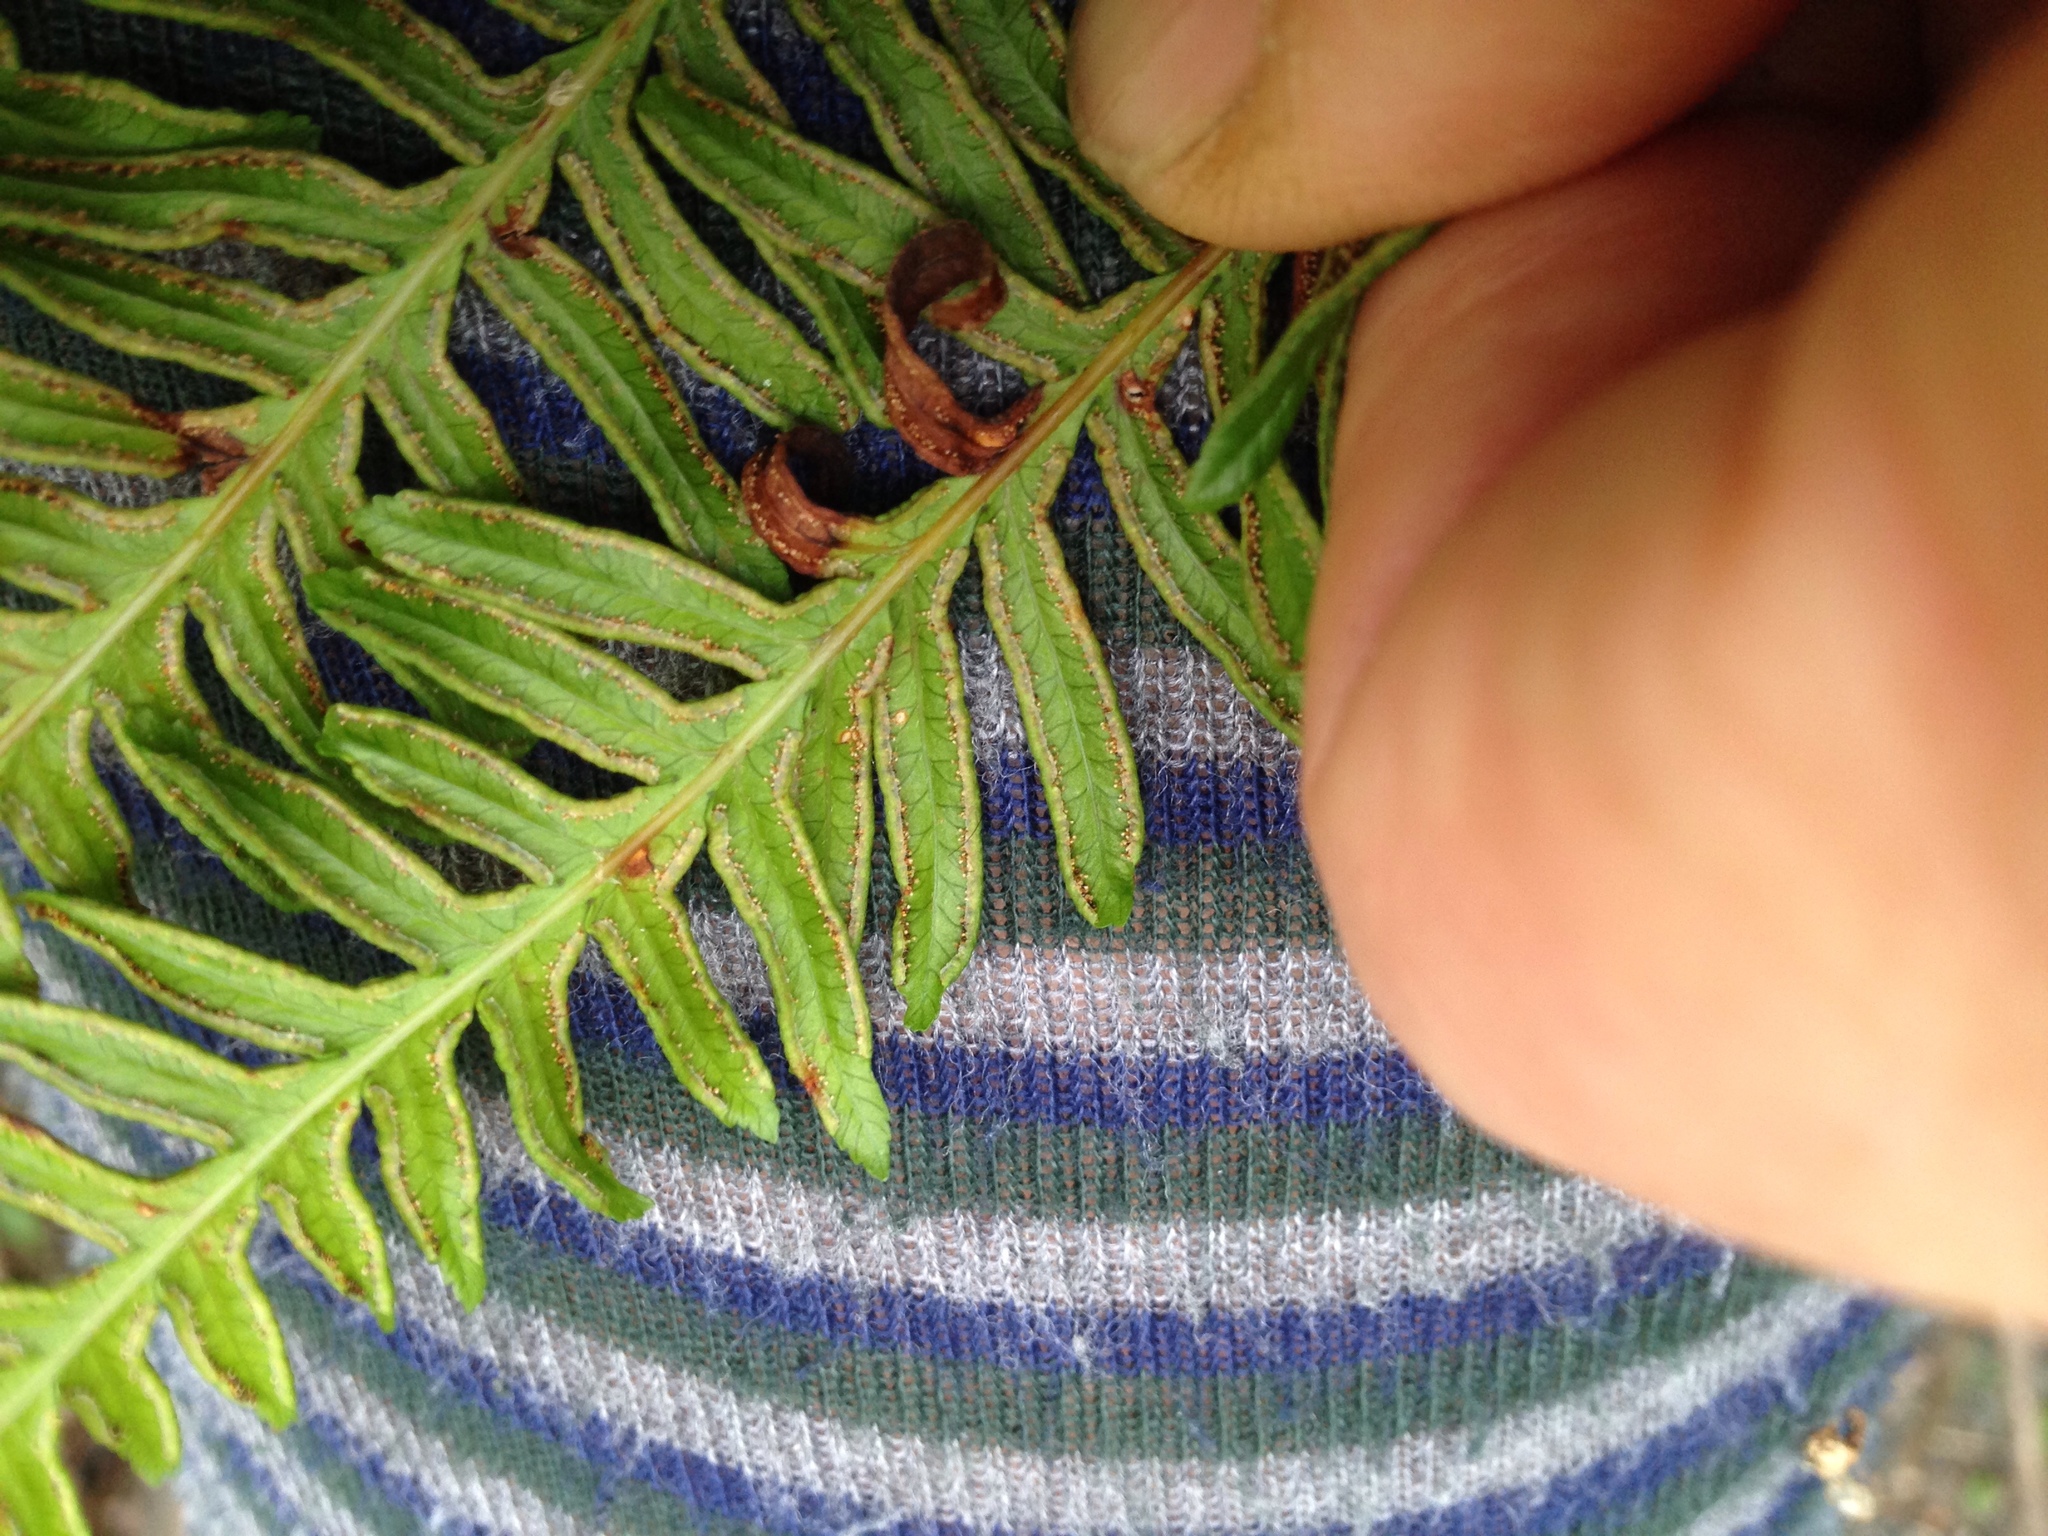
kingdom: Plantae
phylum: Tracheophyta
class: Polypodiopsida
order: Polypodiales
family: Pteridaceae
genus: Pteris
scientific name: Pteris tremula
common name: Australian brake
